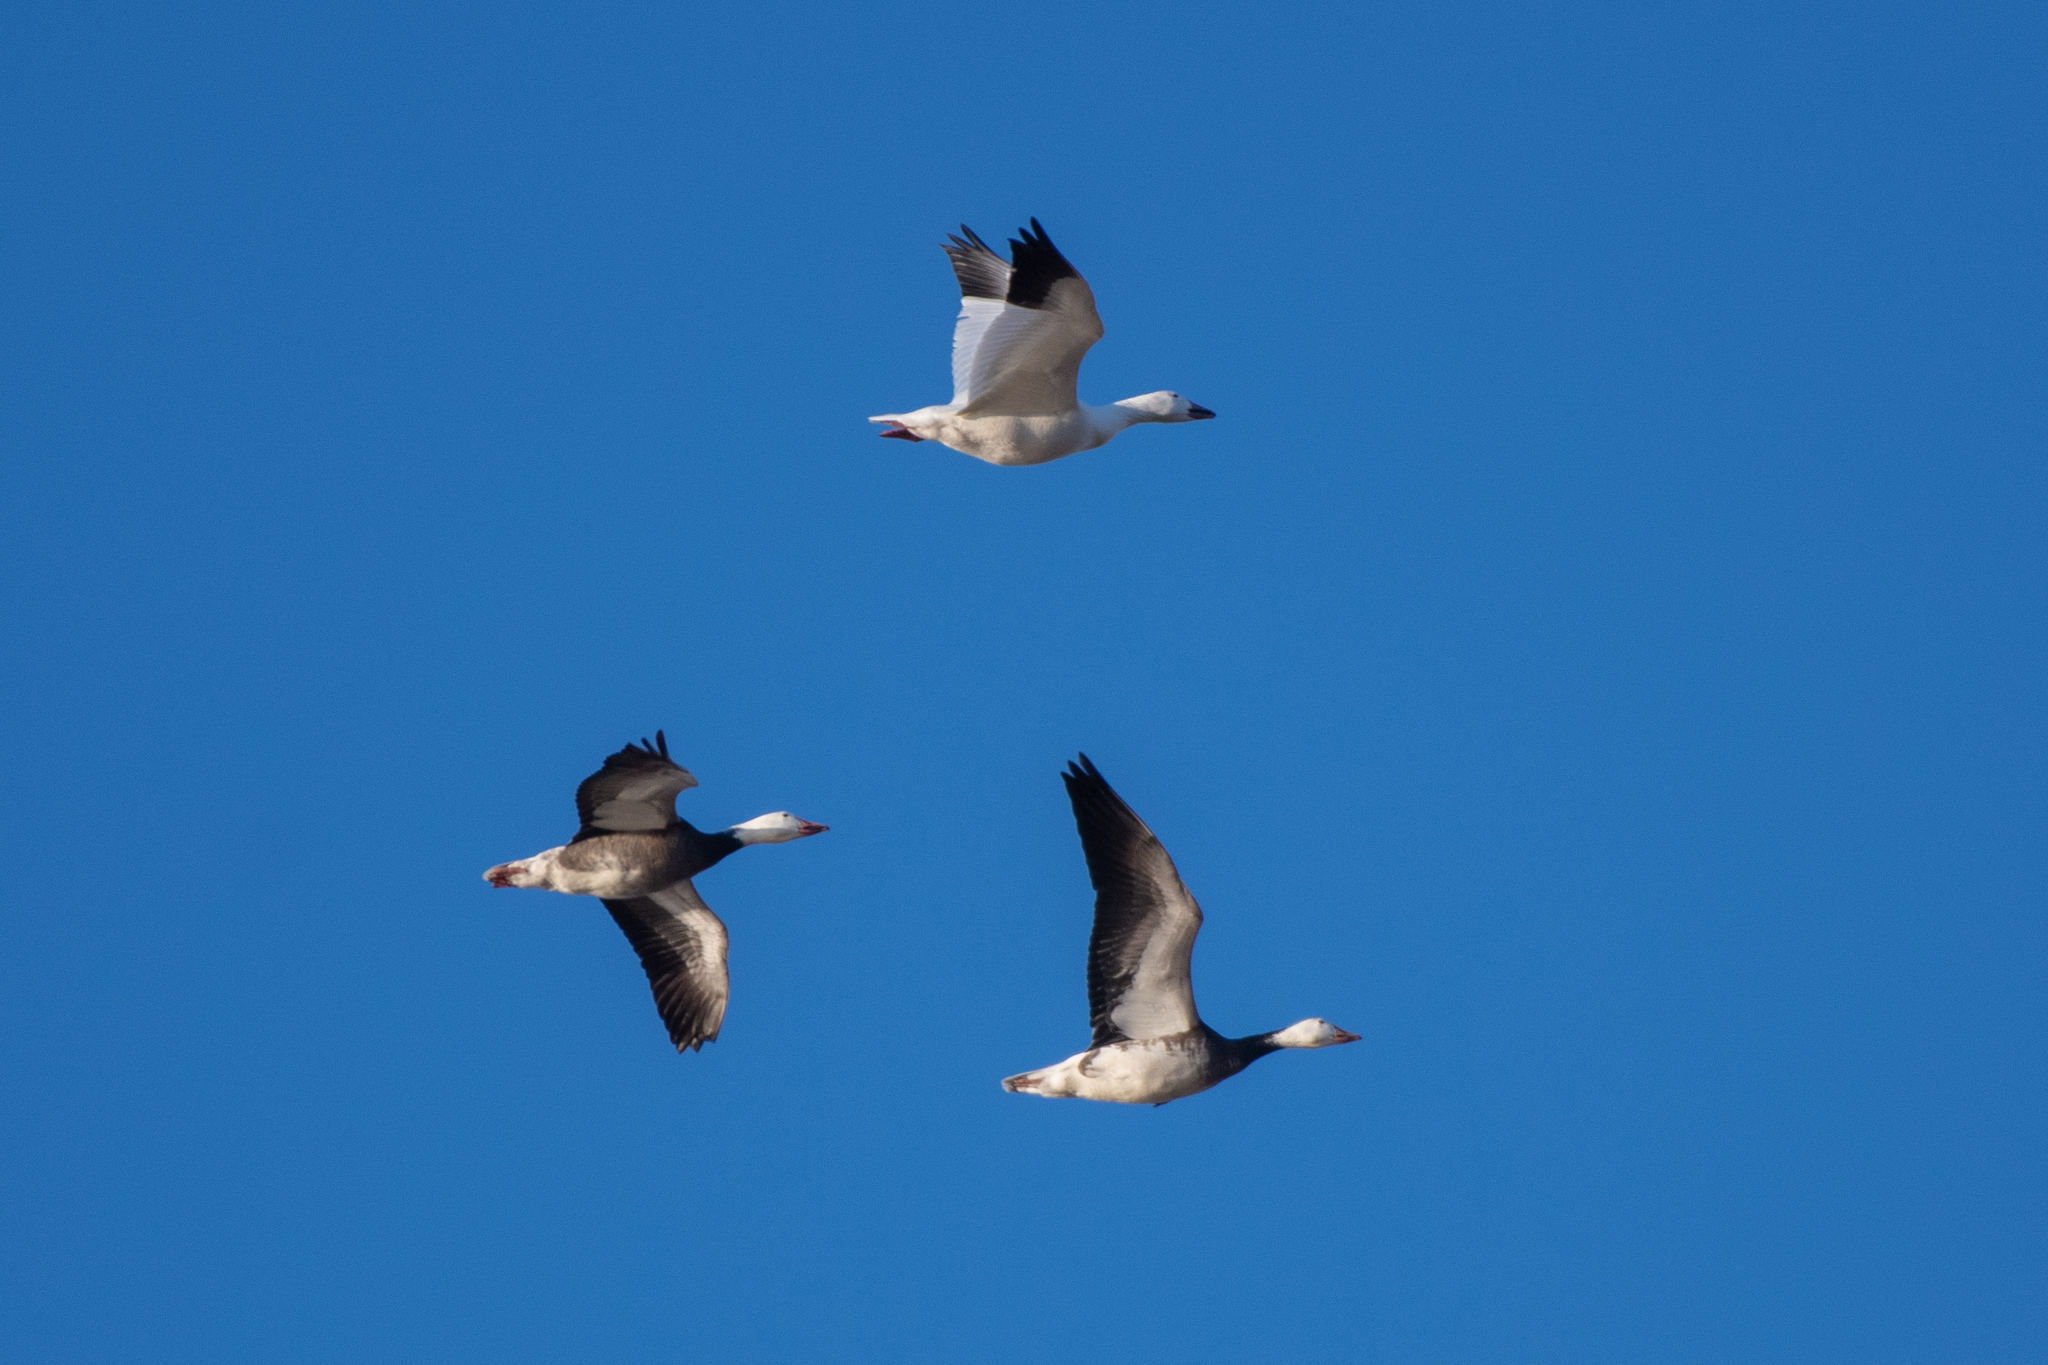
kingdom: Animalia
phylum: Chordata
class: Aves
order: Anseriformes
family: Anatidae
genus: Anser
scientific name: Anser caerulescens
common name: Snow goose
